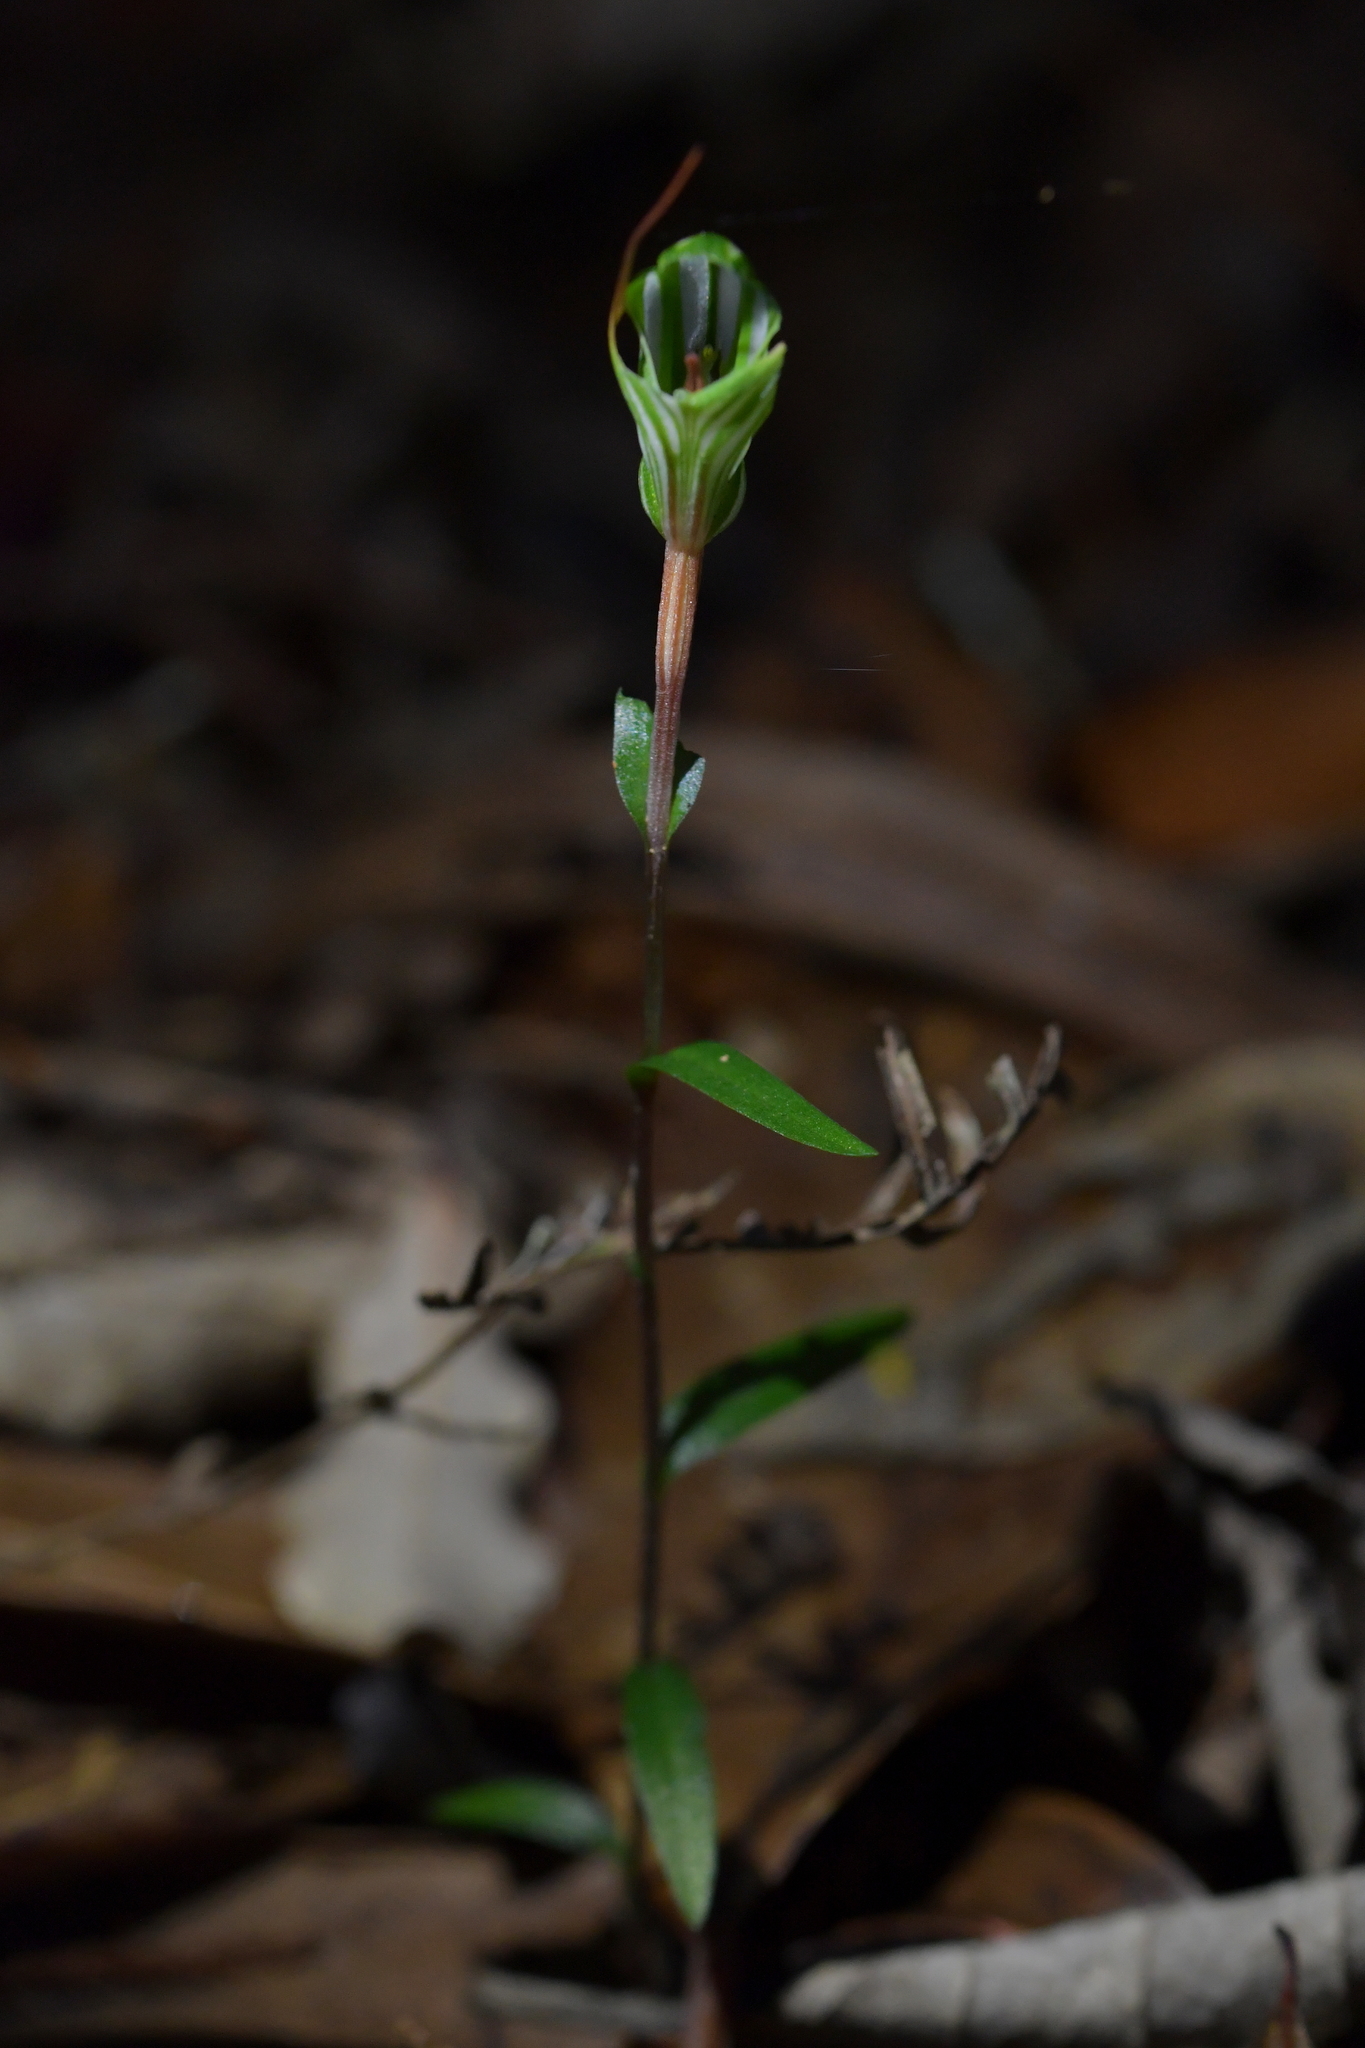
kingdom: Plantae
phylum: Tracheophyta
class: Liliopsida
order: Asparagales
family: Orchidaceae
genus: Pterostylis
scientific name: Pterostylis alobula
